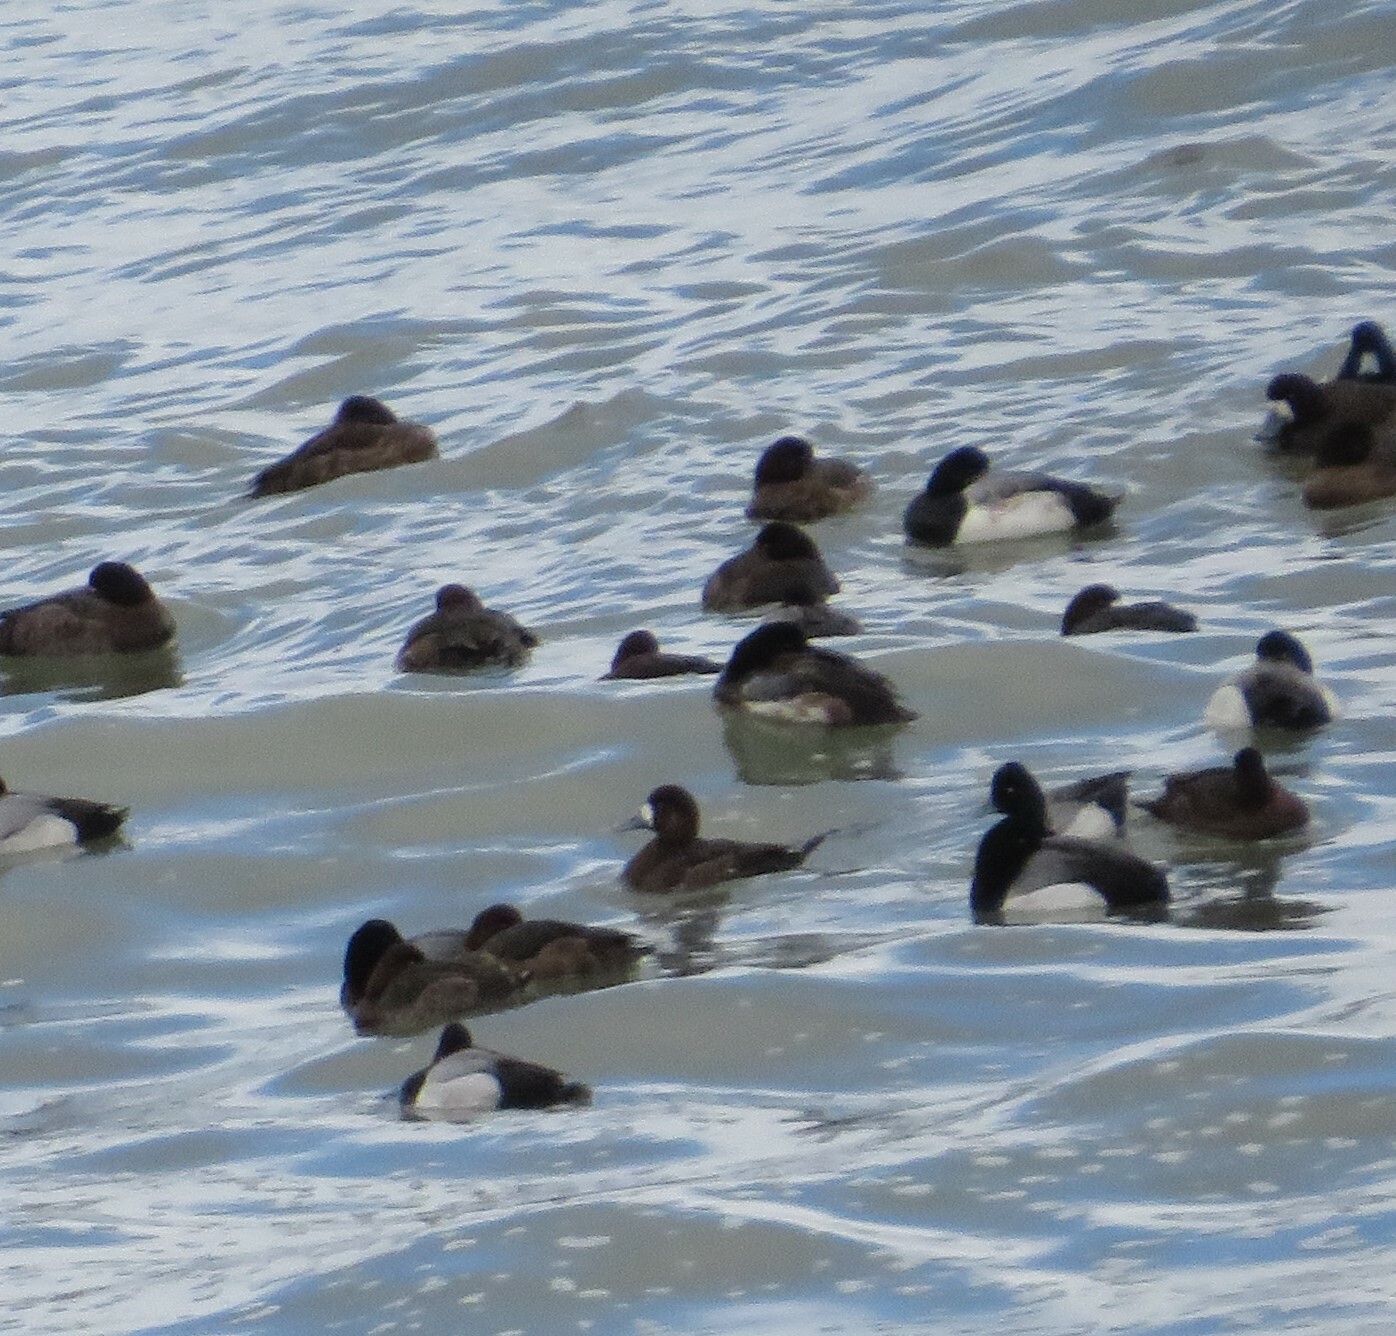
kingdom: Animalia
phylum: Chordata
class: Aves
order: Anseriformes
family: Anatidae
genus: Aythya
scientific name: Aythya affinis
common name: Lesser scaup
